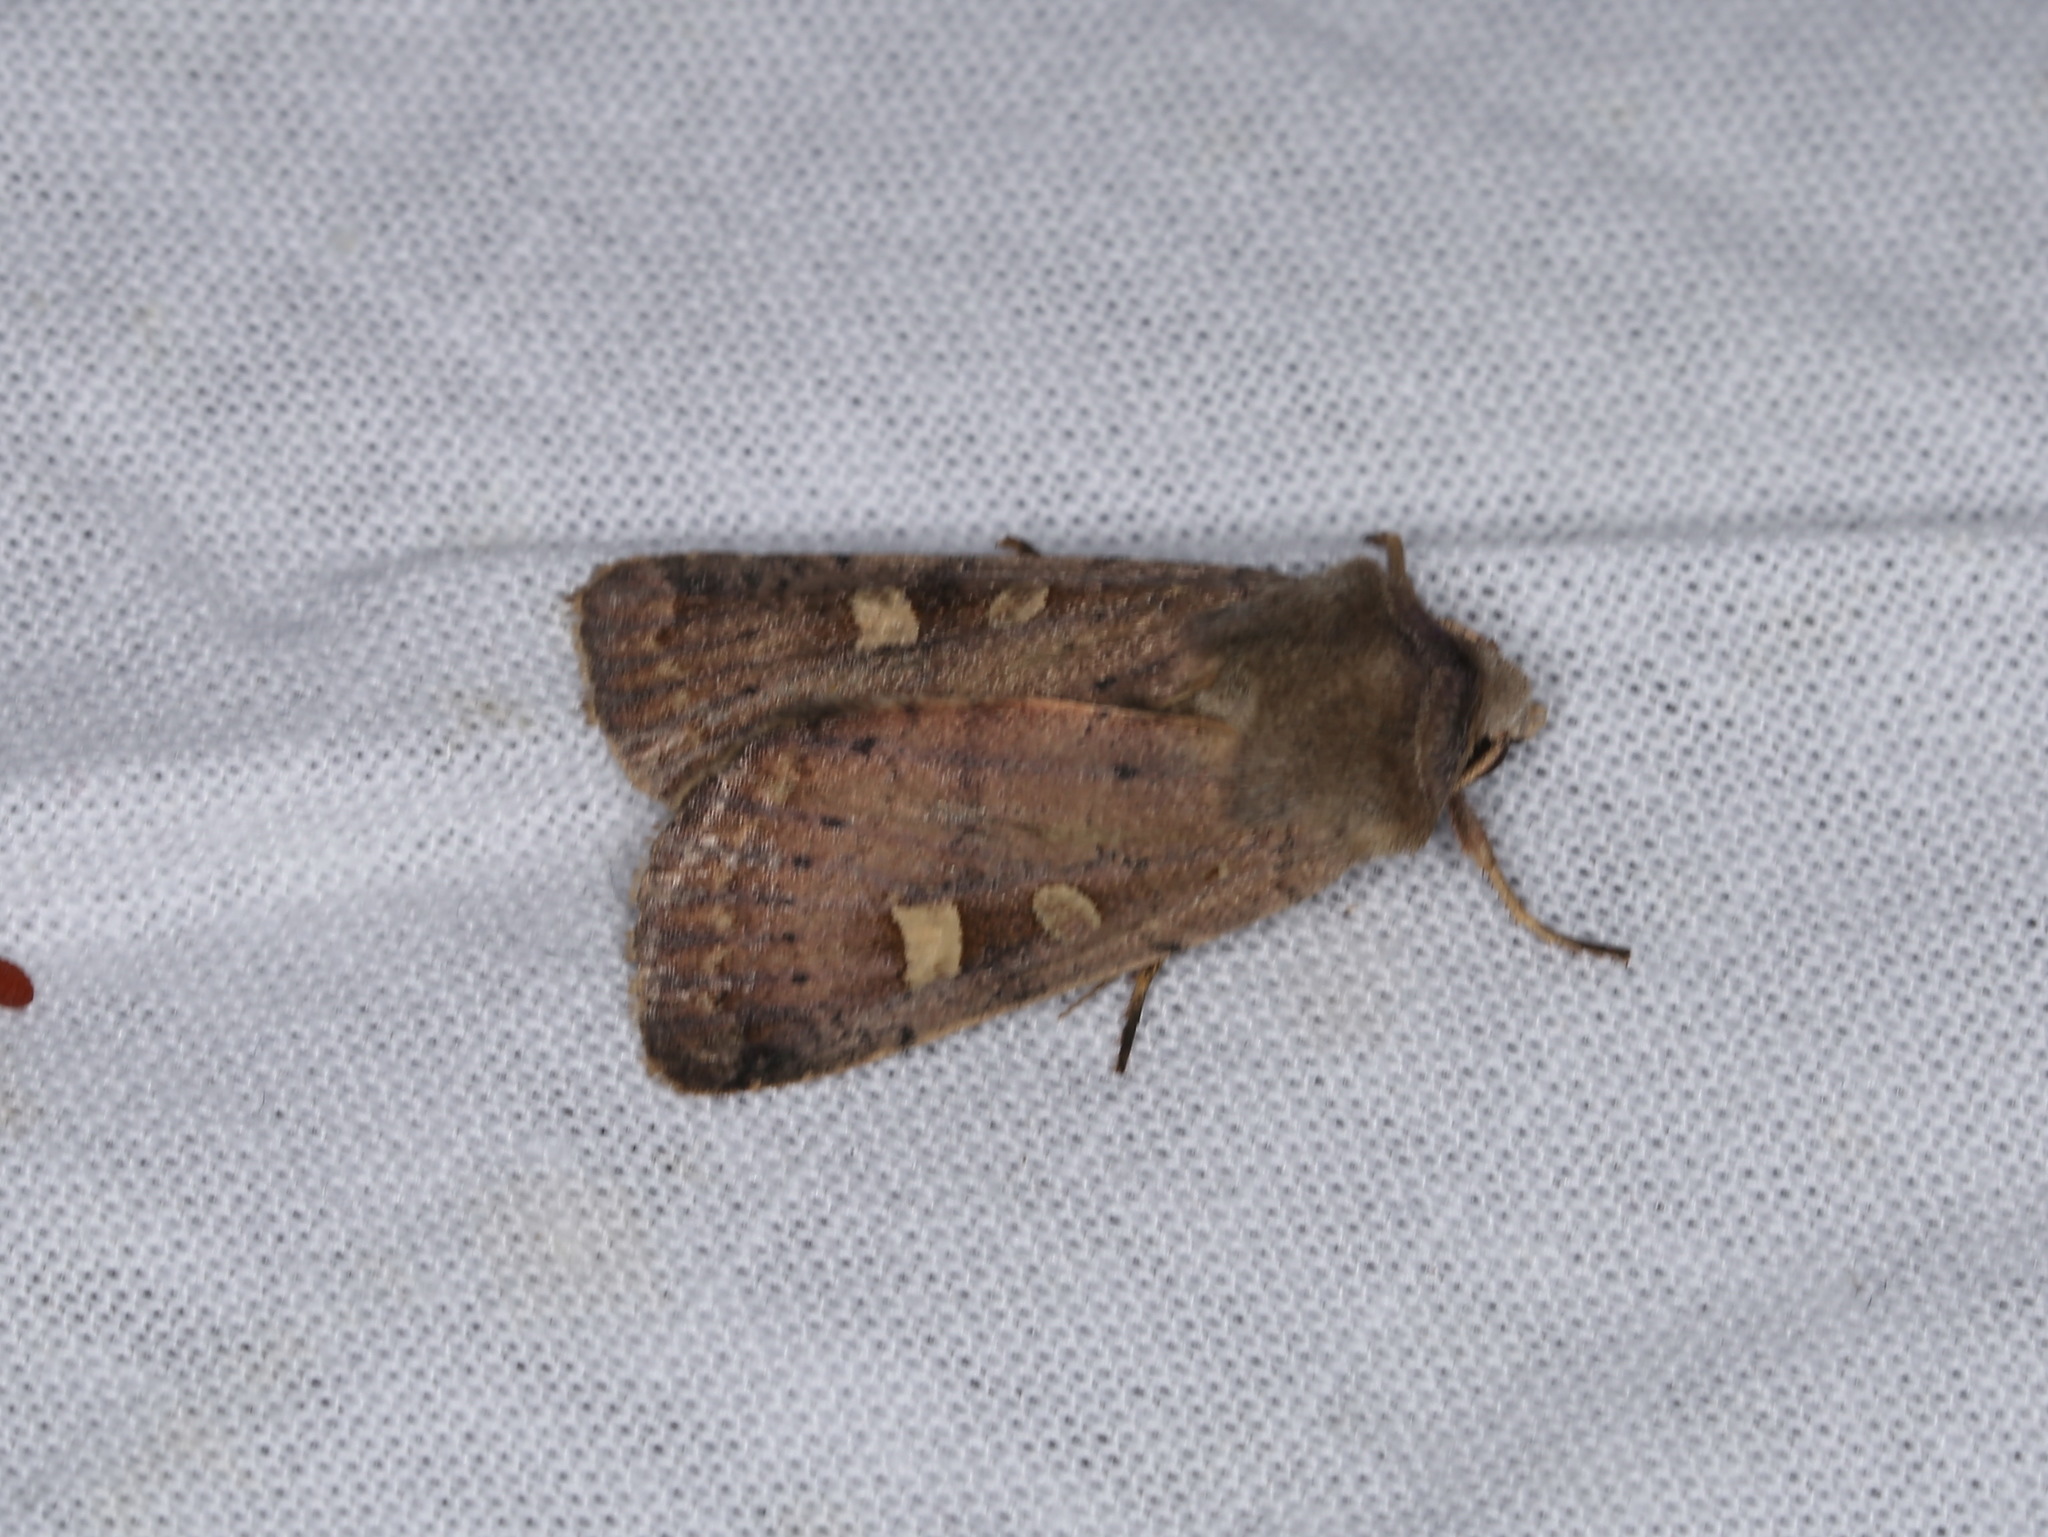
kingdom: Animalia
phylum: Arthropoda
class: Insecta
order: Lepidoptera
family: Noctuidae
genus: Xestia
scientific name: Xestia xanthographa
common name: Square-spot rustic
